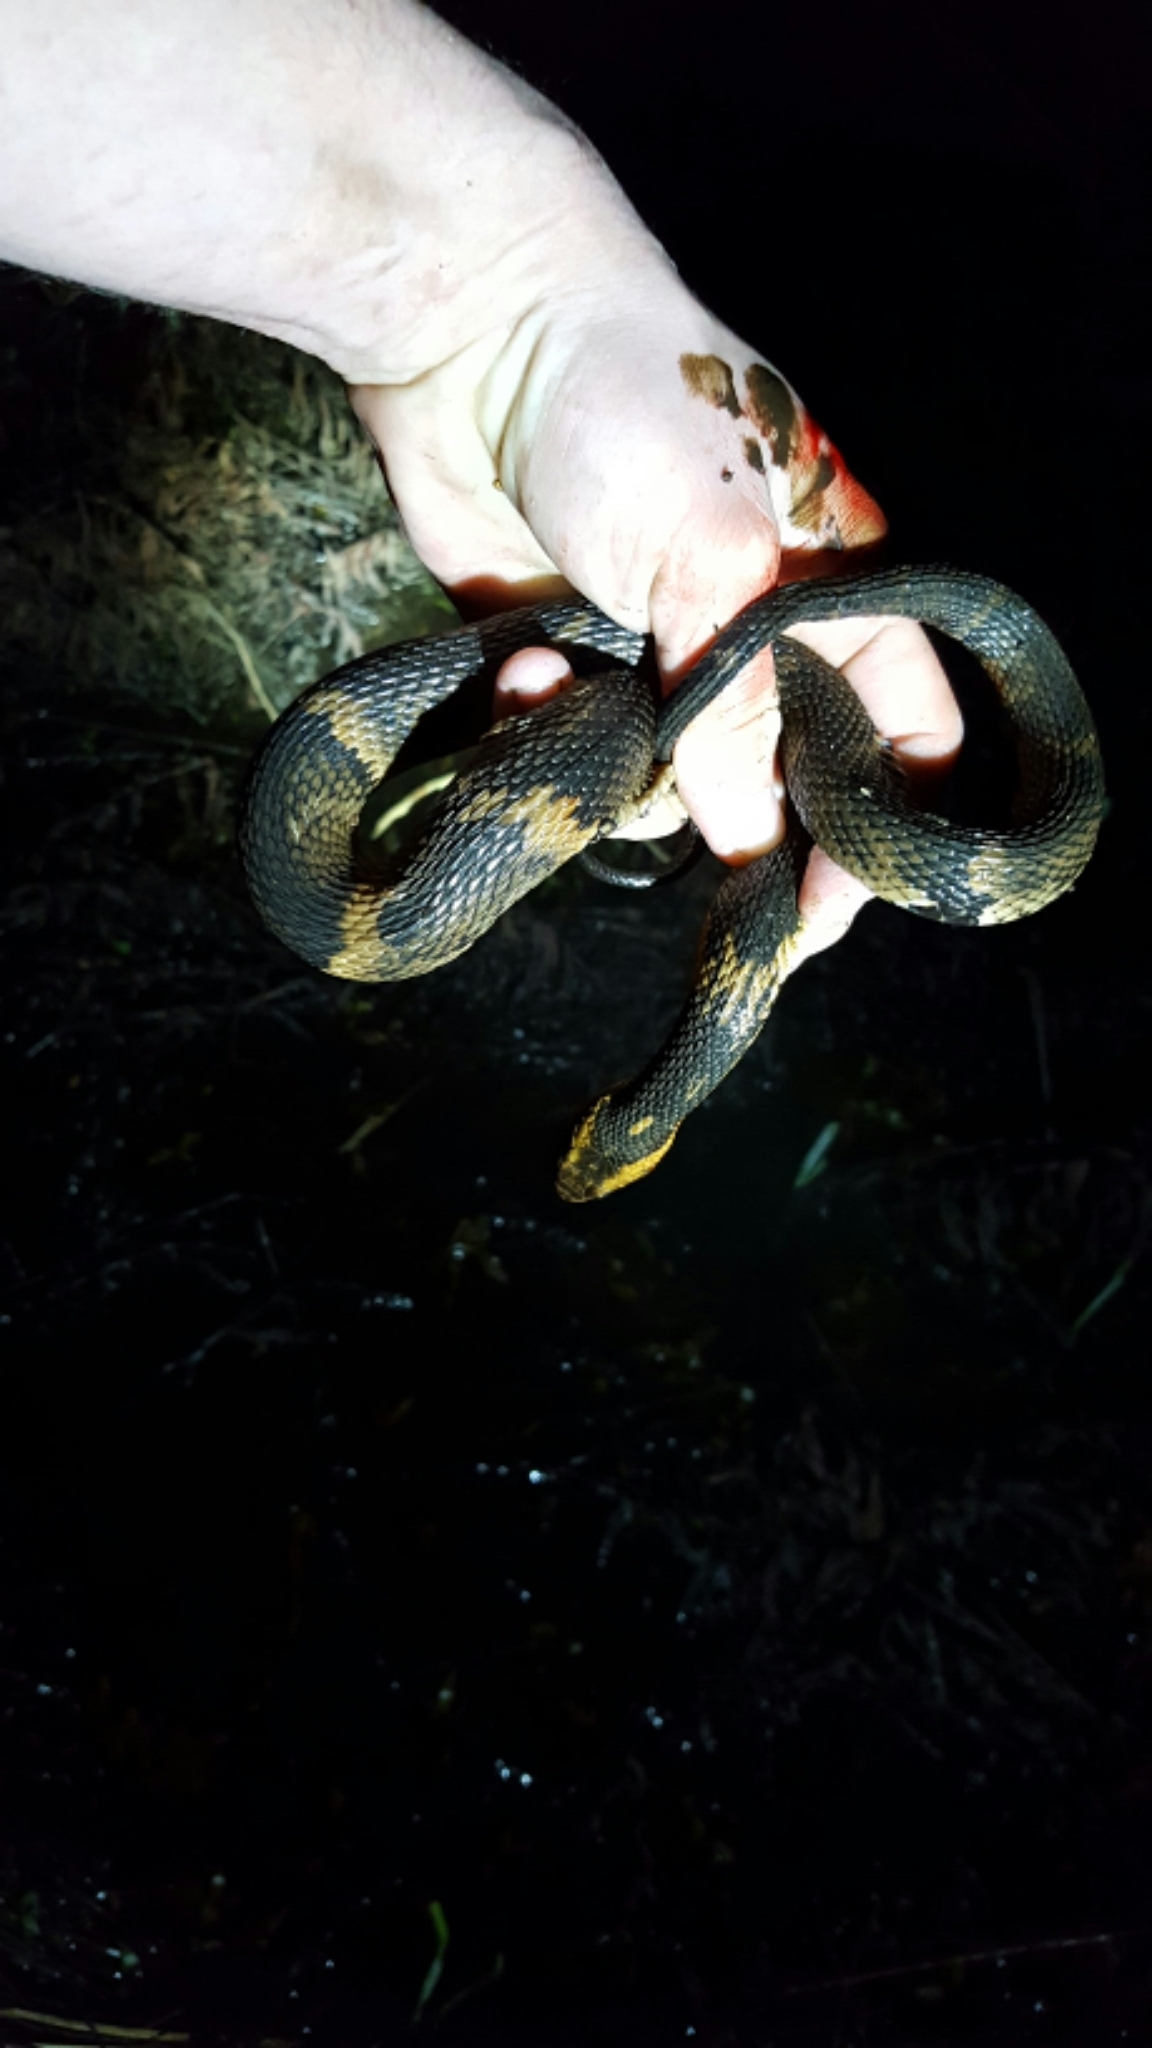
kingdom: Animalia
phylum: Chordata
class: Squamata
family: Colubridae
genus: Nerodia
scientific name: Nerodia fasciata
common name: Southern water snake
